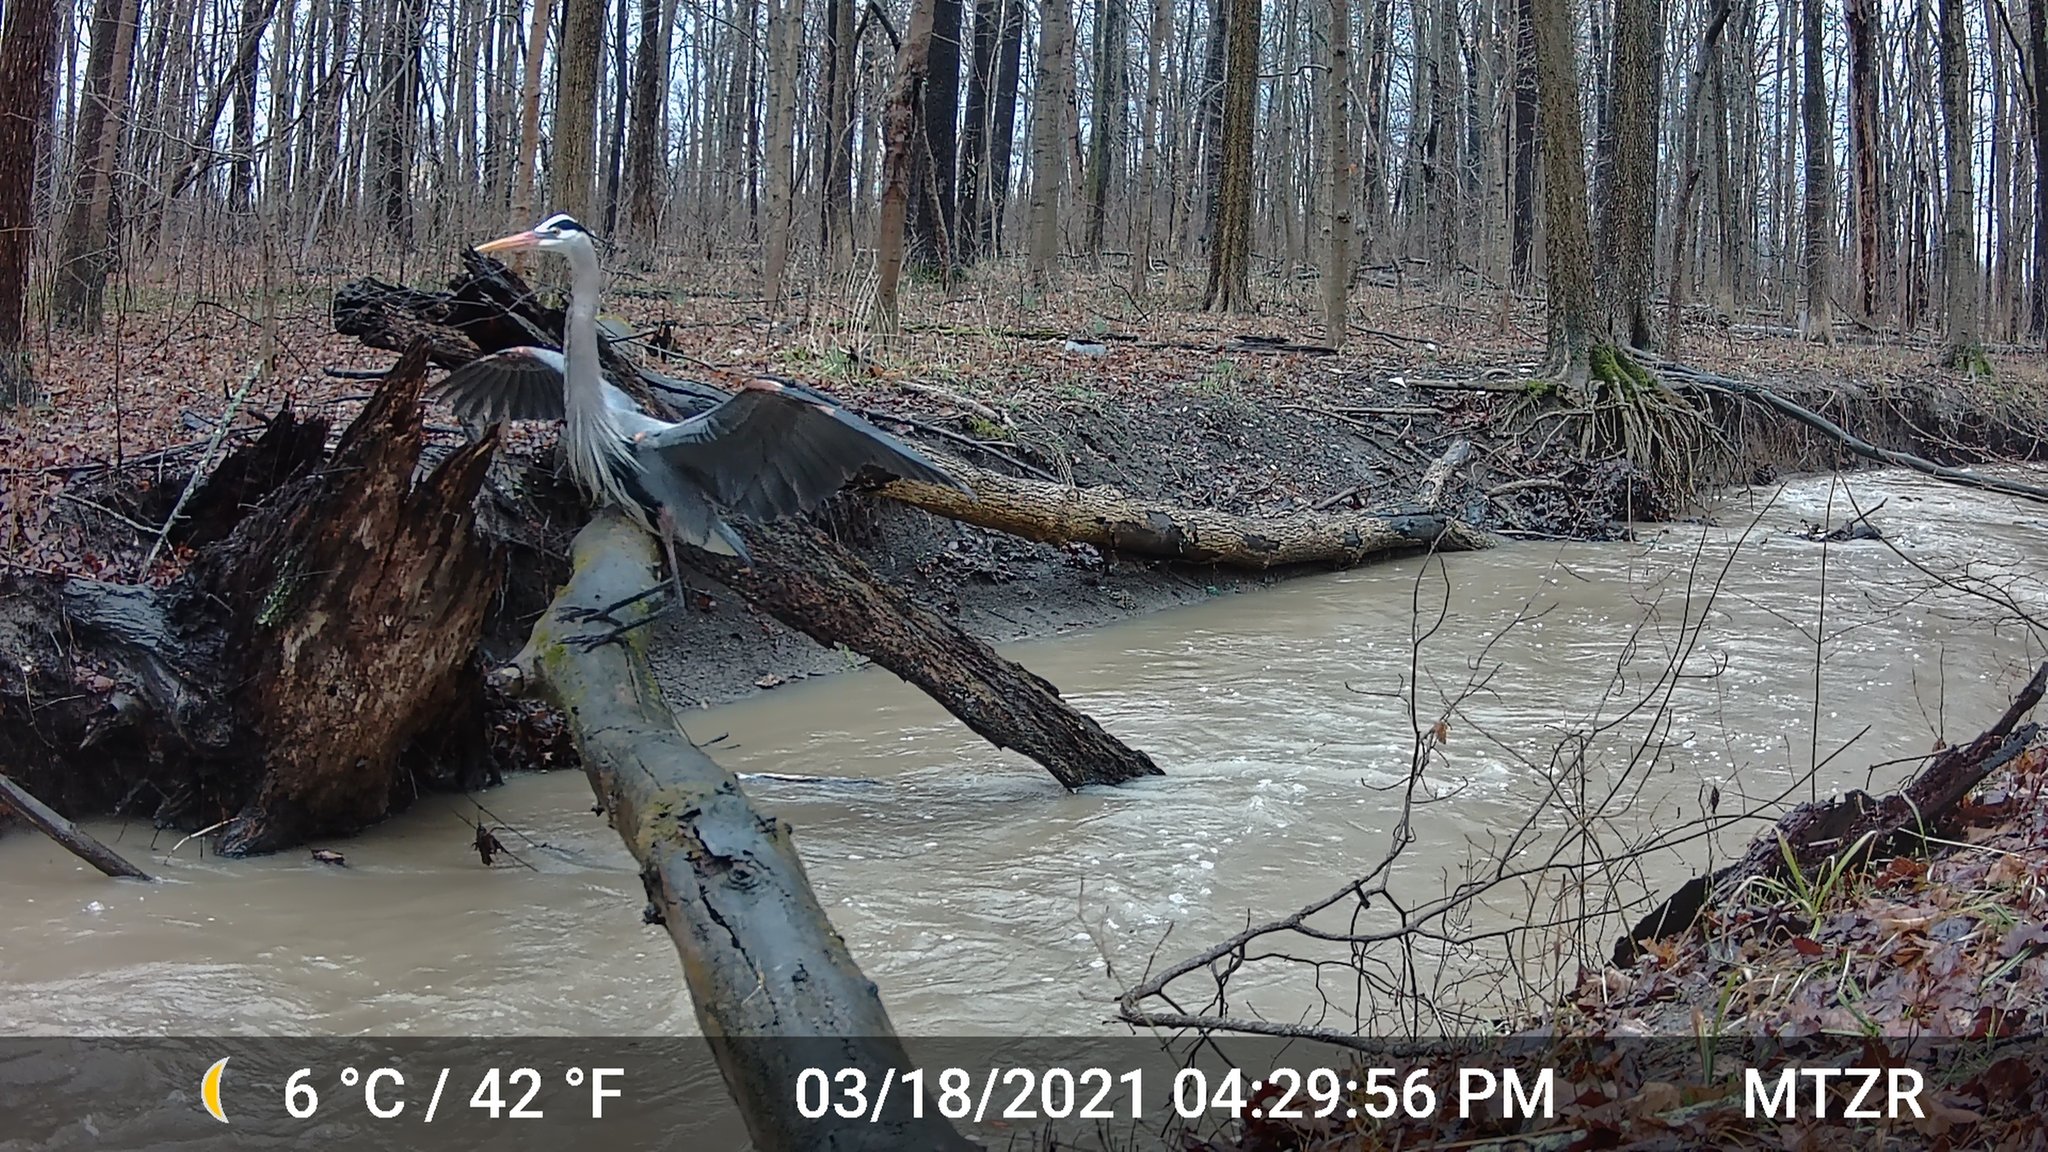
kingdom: Animalia
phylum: Chordata
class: Aves
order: Pelecaniformes
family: Ardeidae
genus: Ardea
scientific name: Ardea herodias
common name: Great blue heron
